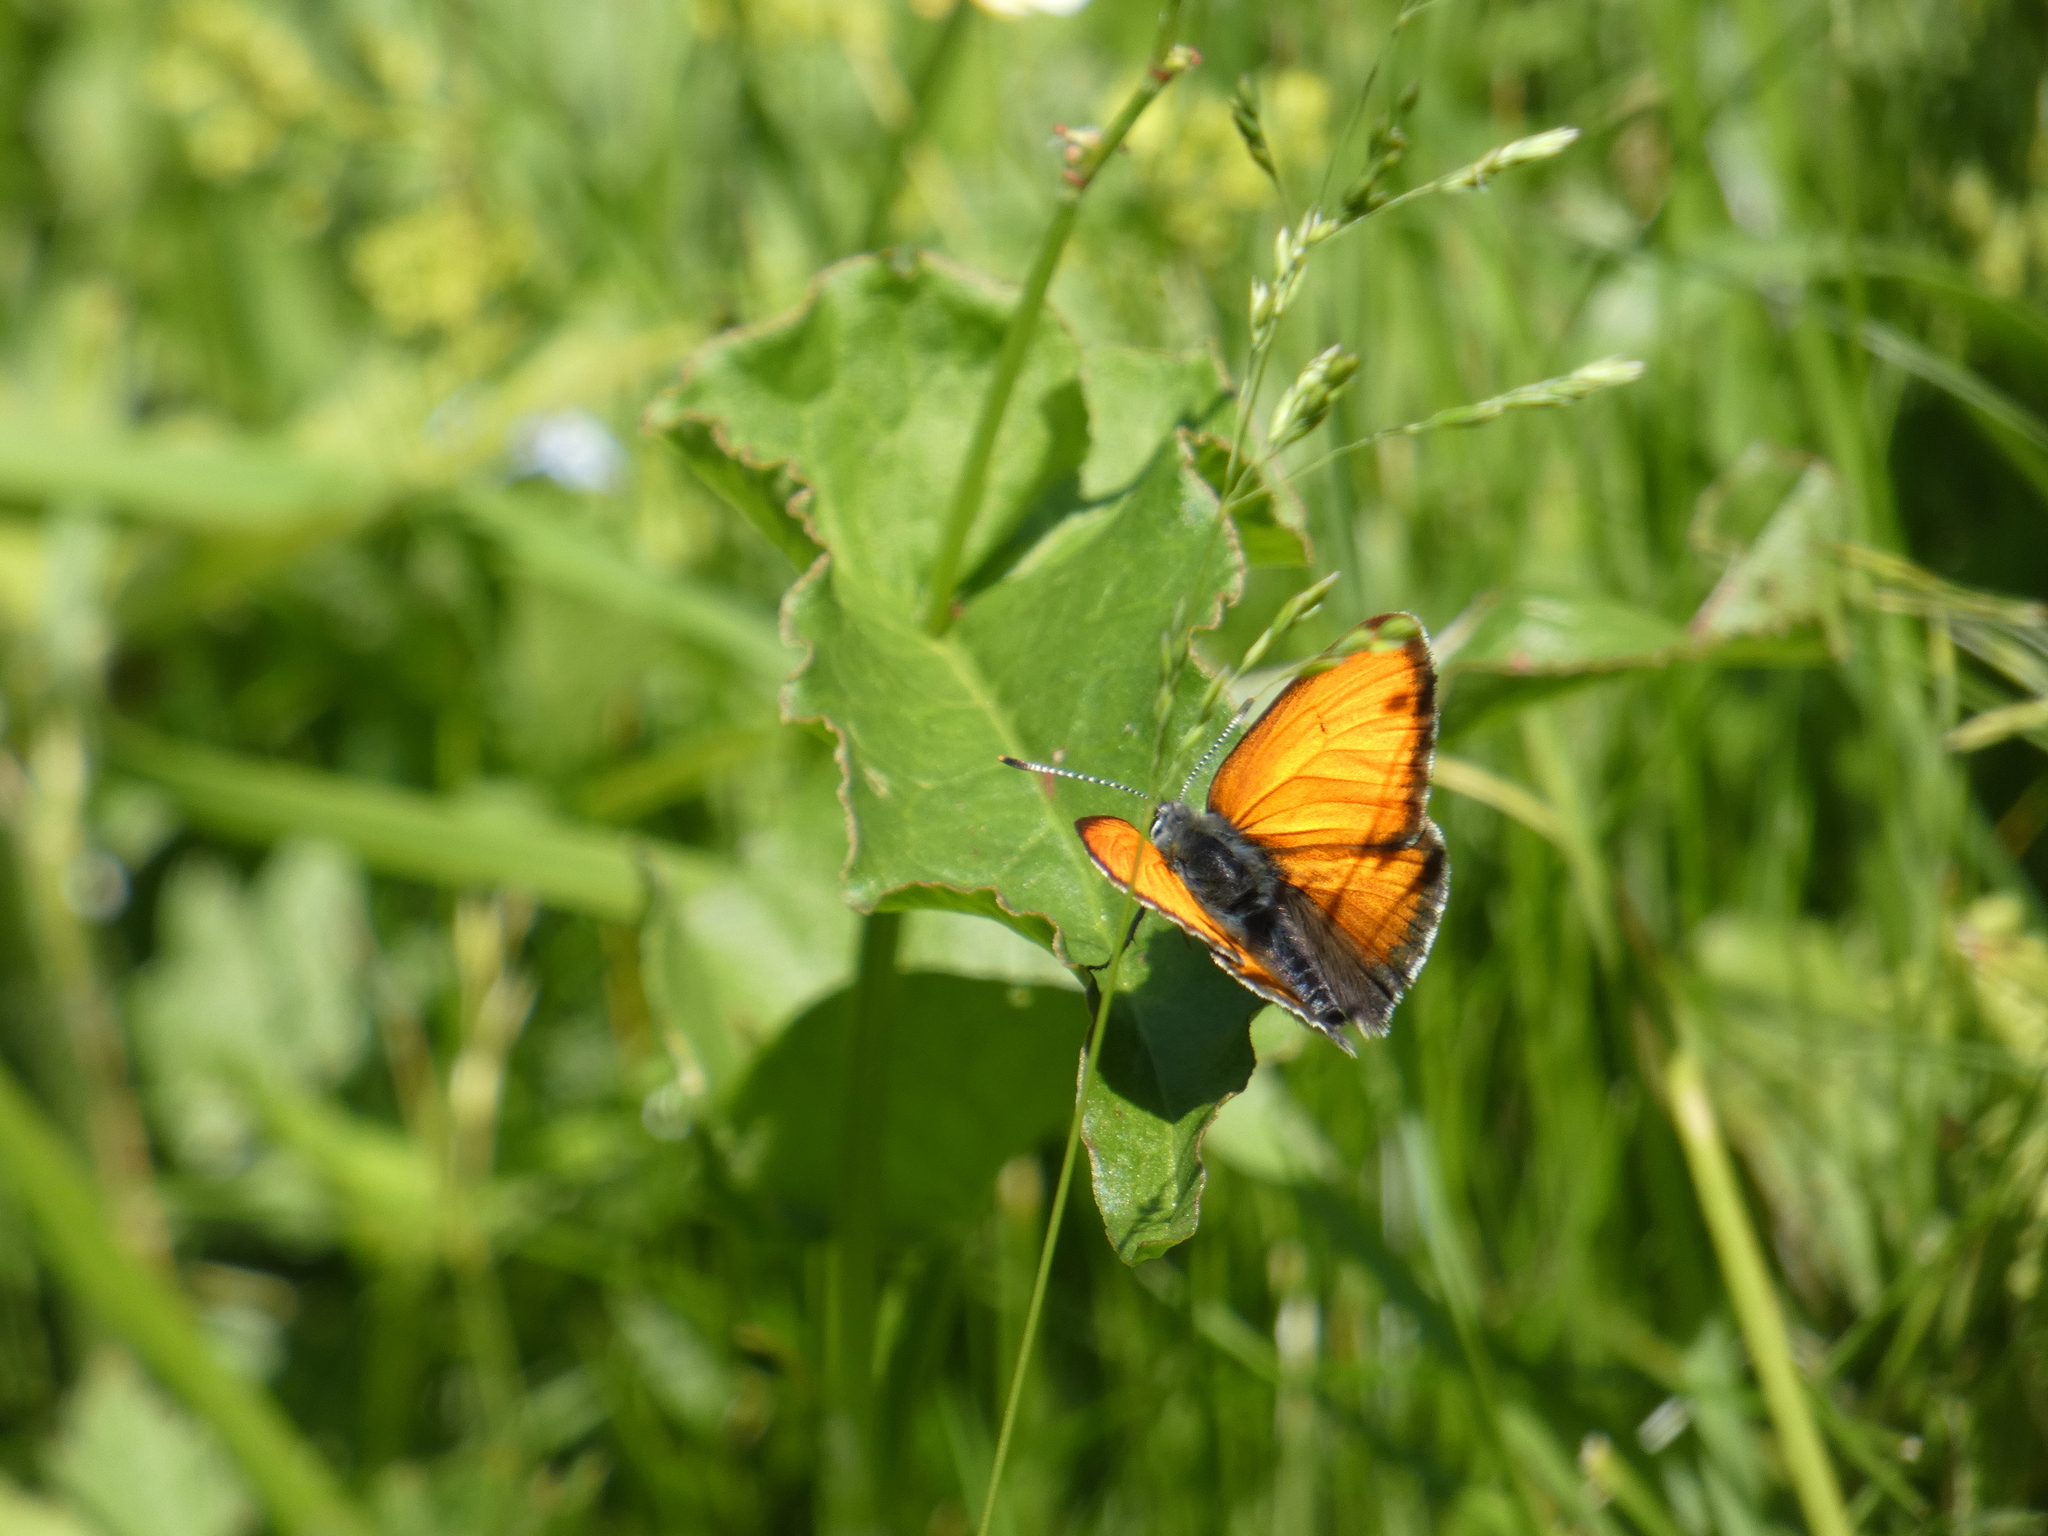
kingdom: Animalia
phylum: Arthropoda
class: Insecta
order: Lepidoptera
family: Lycaenidae
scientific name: Lycaenidae
